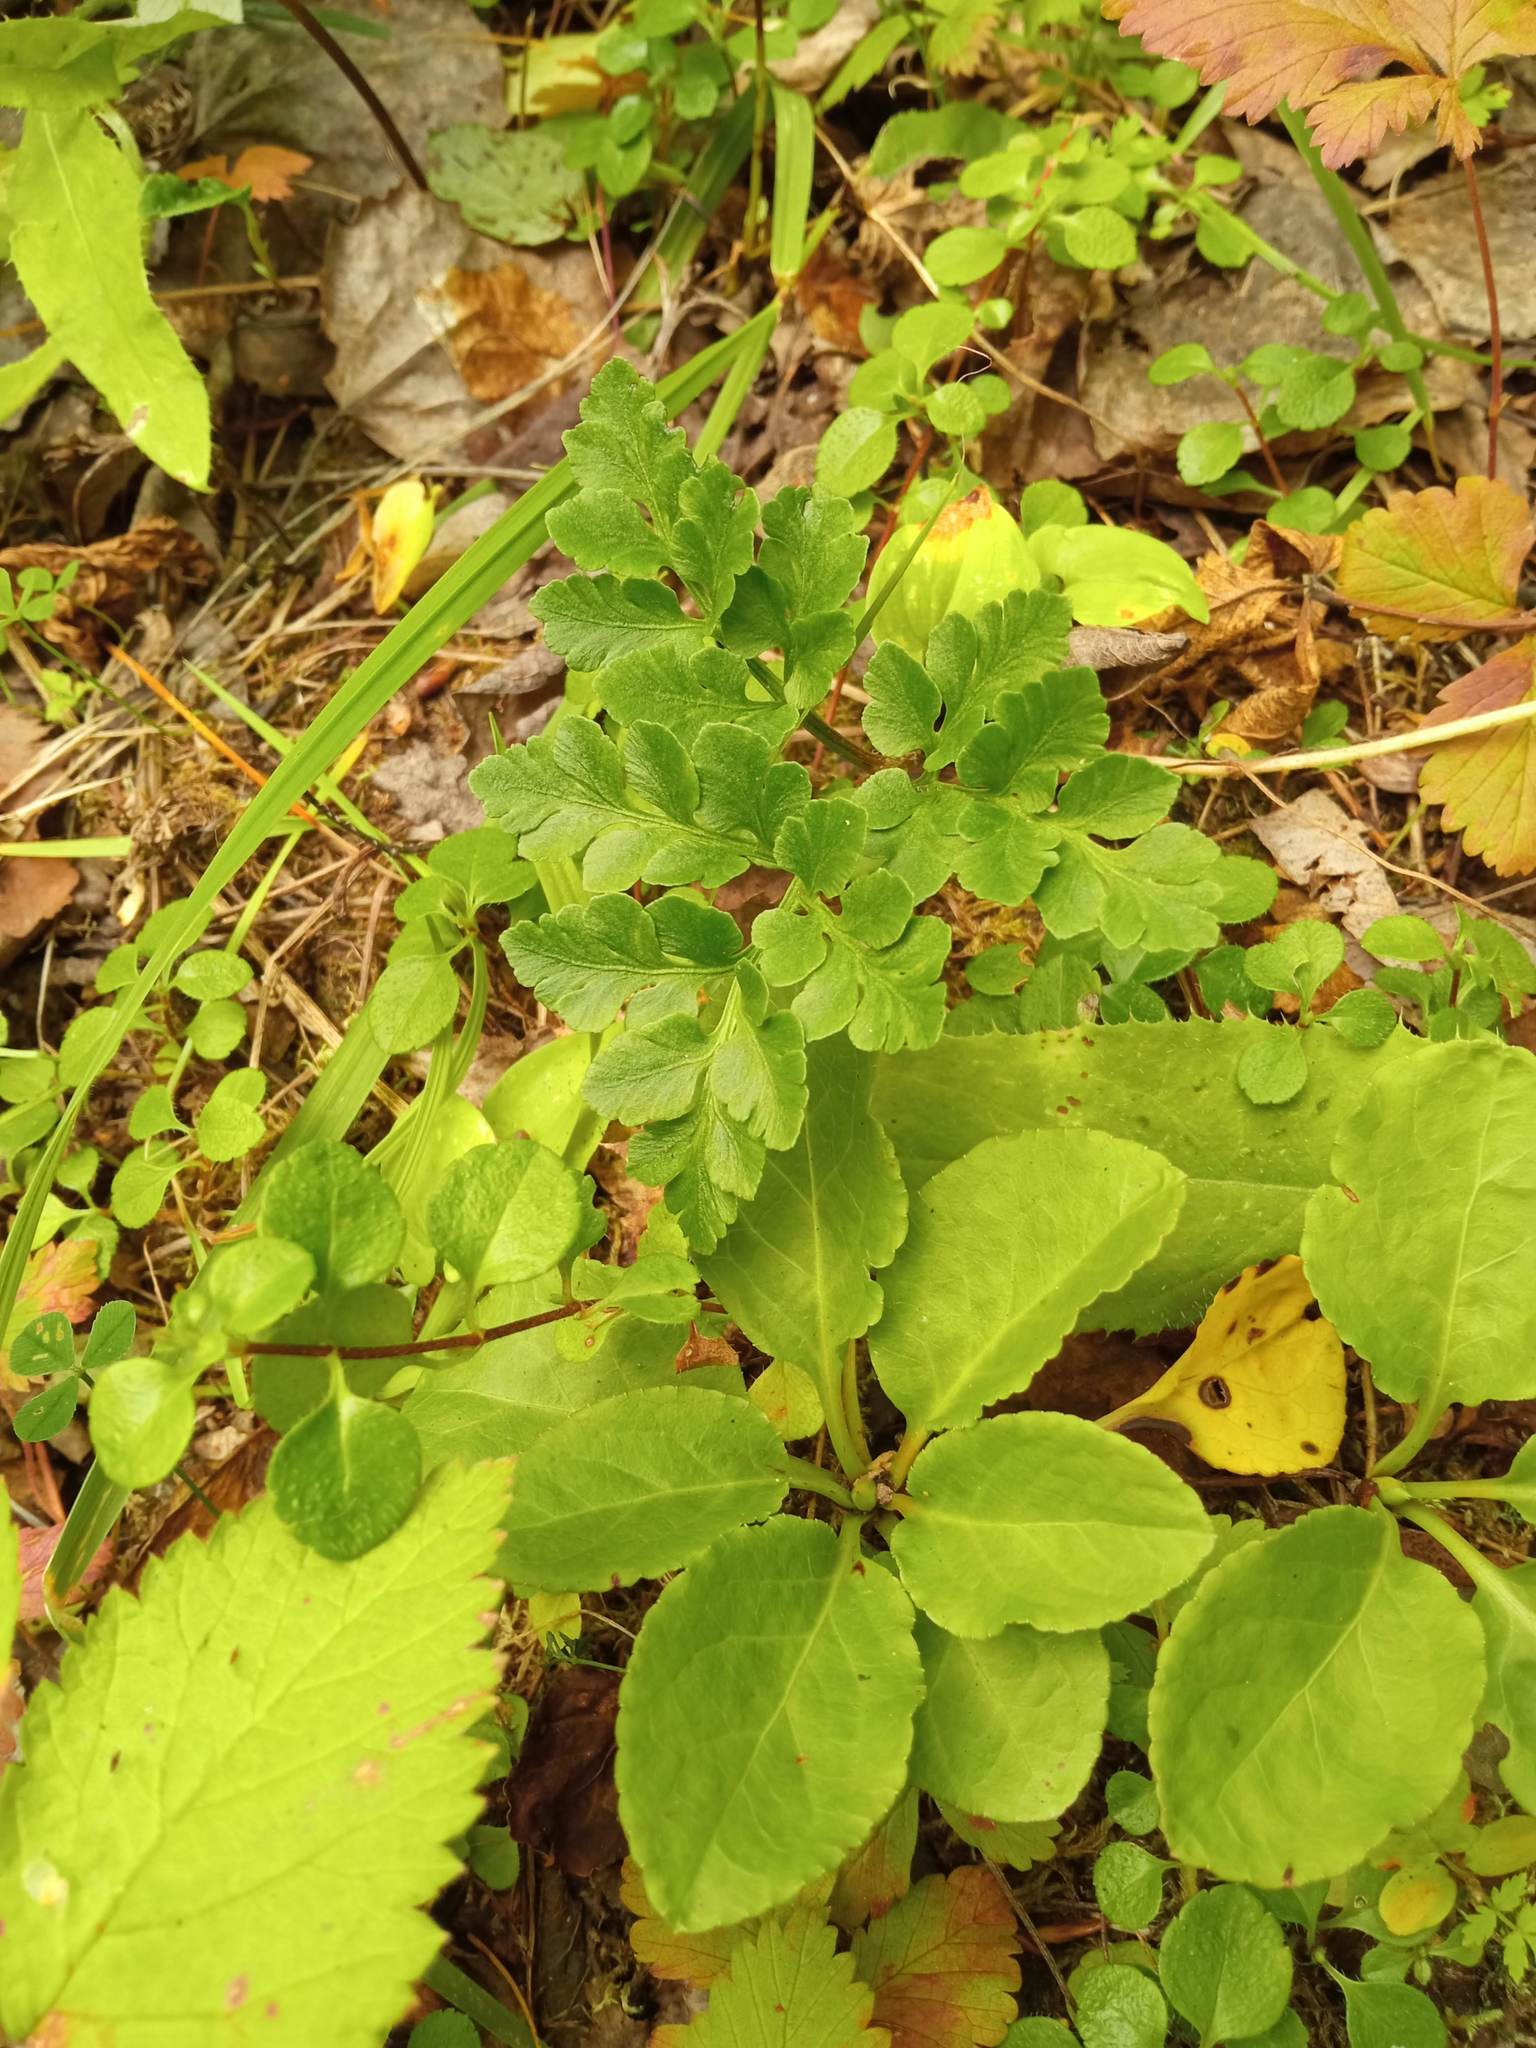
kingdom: Plantae
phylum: Tracheophyta
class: Polypodiopsida
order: Ophioglossales
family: Ophioglossaceae
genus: Sceptridium
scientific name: Sceptridium multifidum
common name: Leathery grape fern
